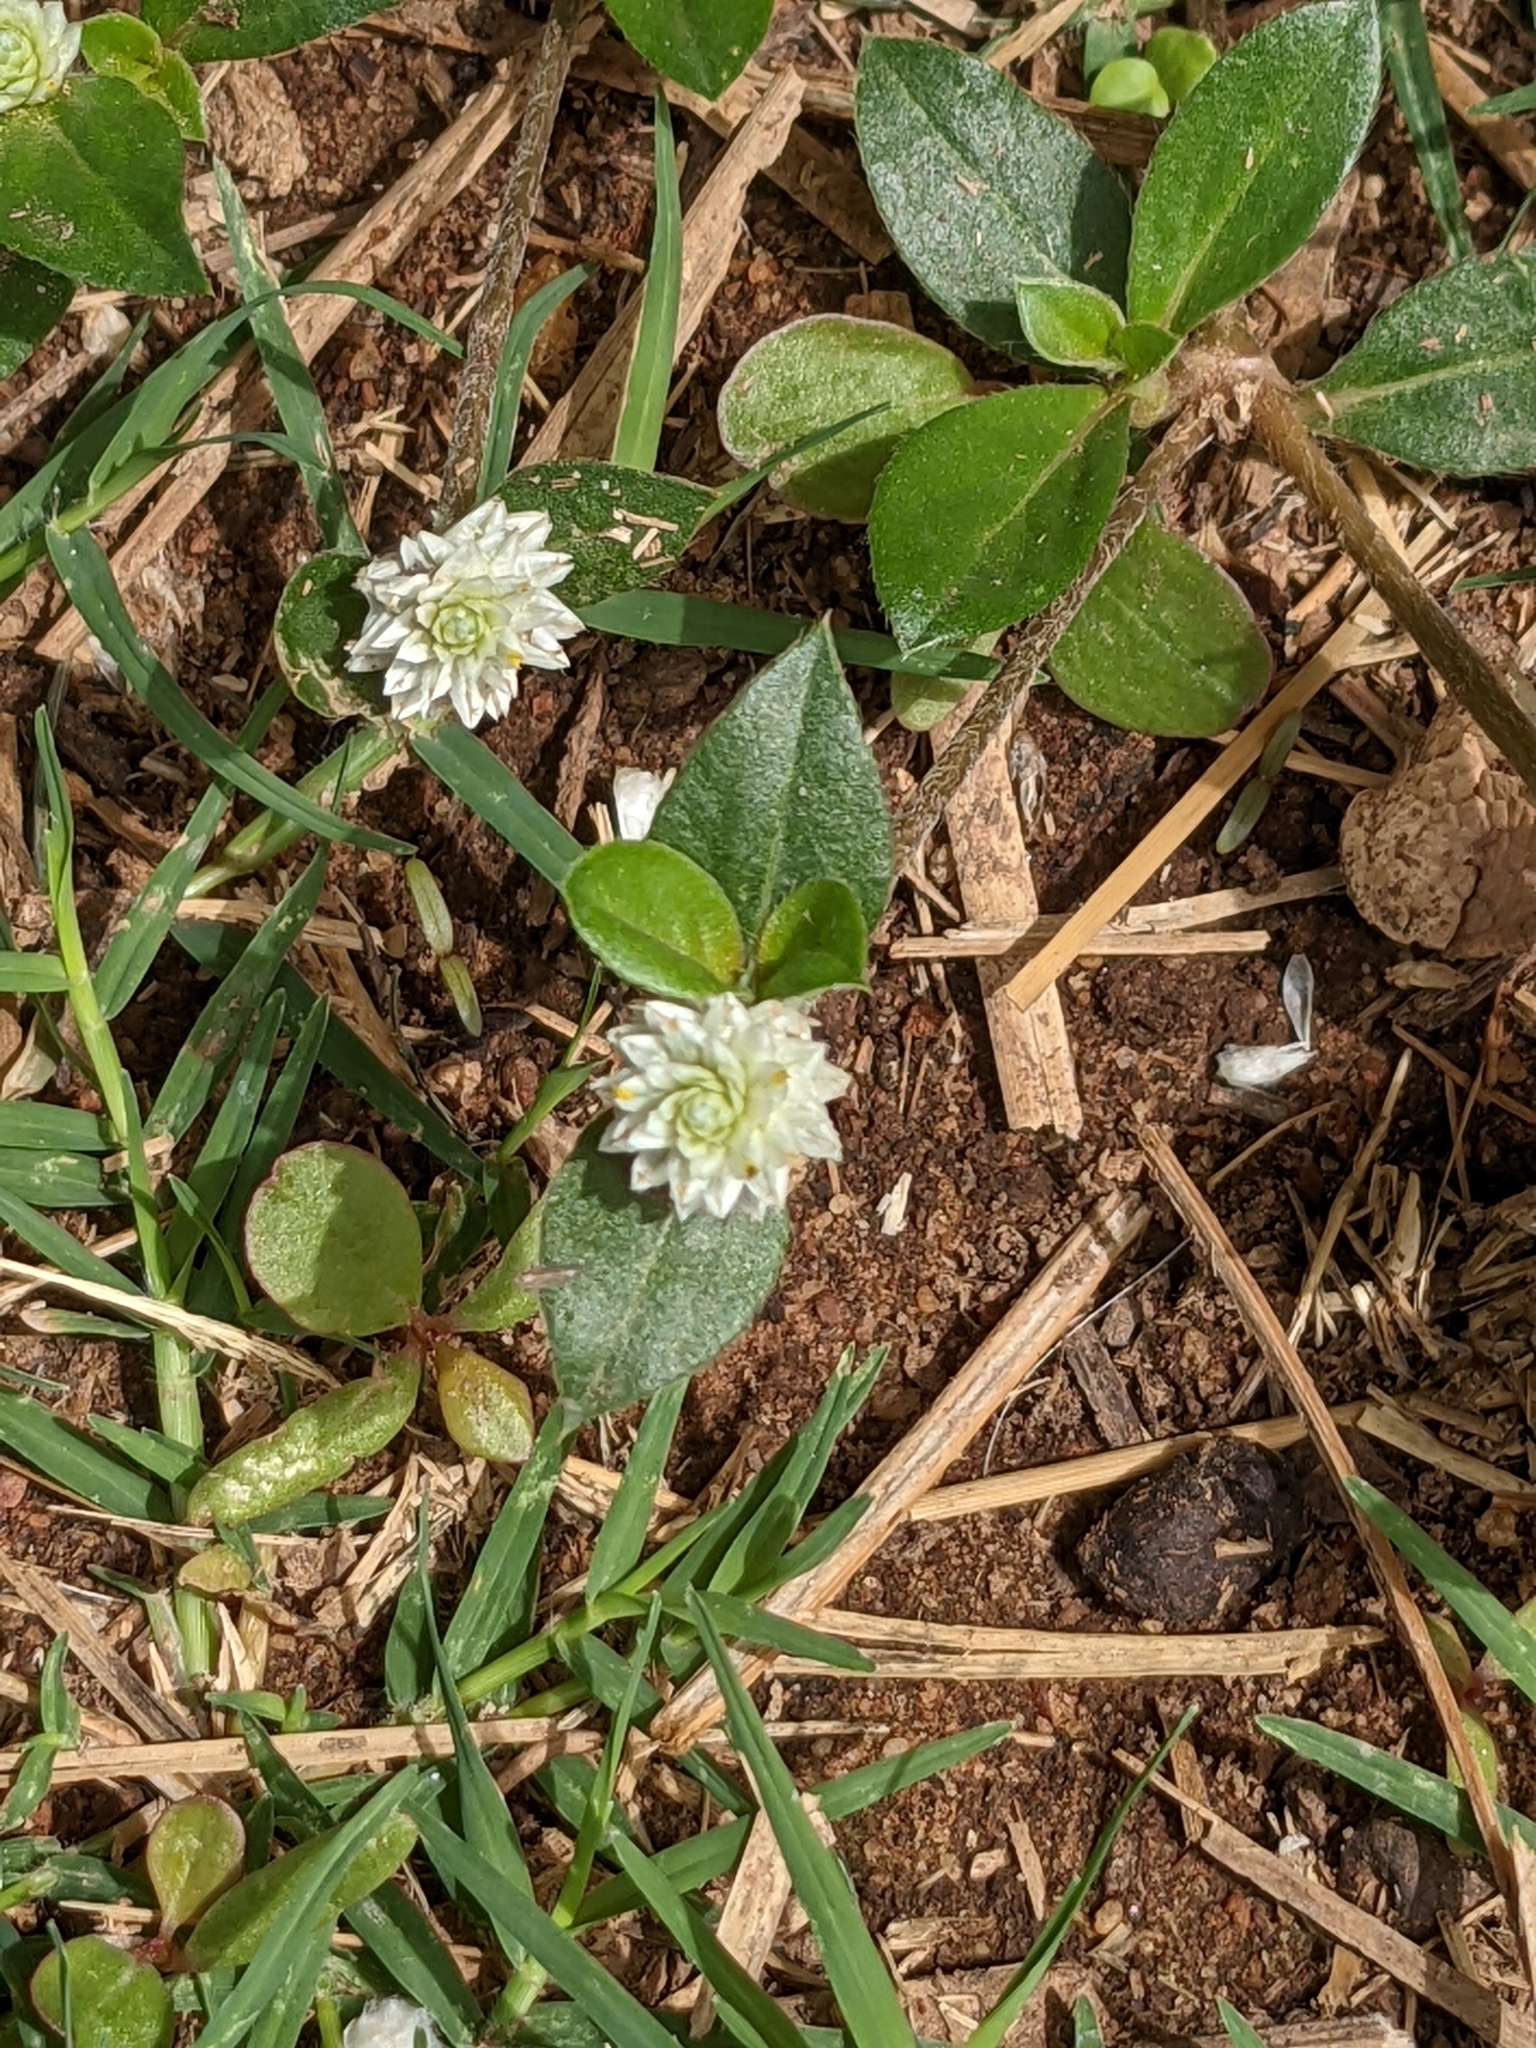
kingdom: Plantae
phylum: Tracheophyta
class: Magnoliopsida
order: Caryophyllales
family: Amaranthaceae
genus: Gomphrena
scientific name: Gomphrena celosioides
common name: Gomphrena-weed
